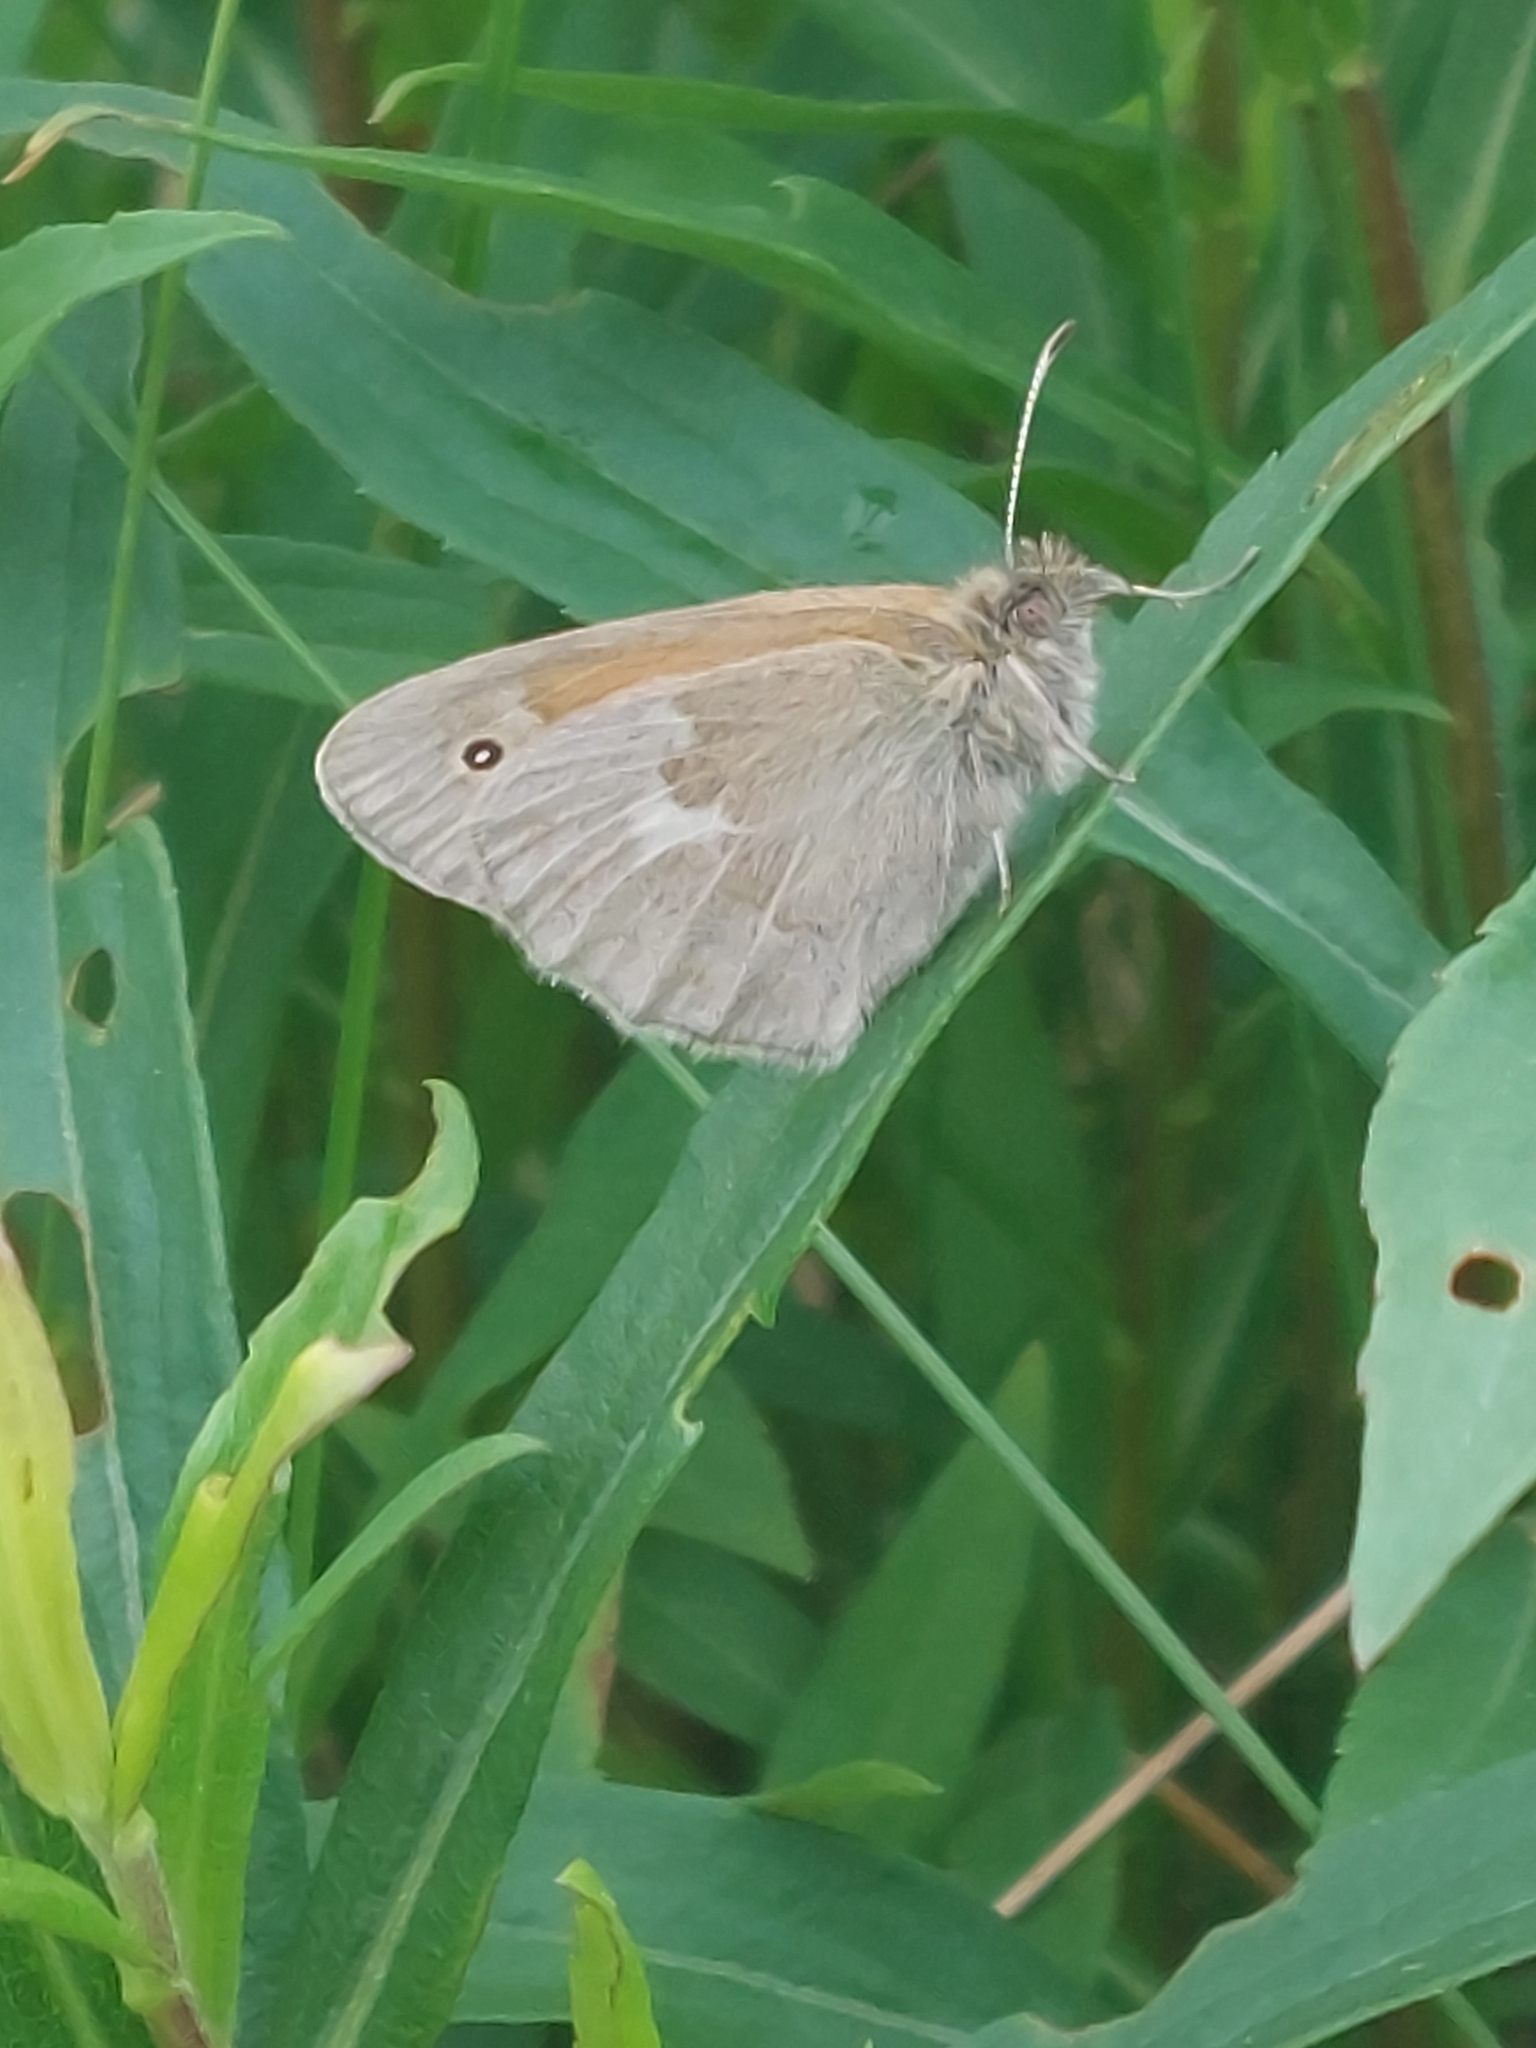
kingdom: Animalia
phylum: Arthropoda
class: Insecta
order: Lepidoptera
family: Nymphalidae
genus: Coenonympha
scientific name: Coenonympha california
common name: Common ringlet
